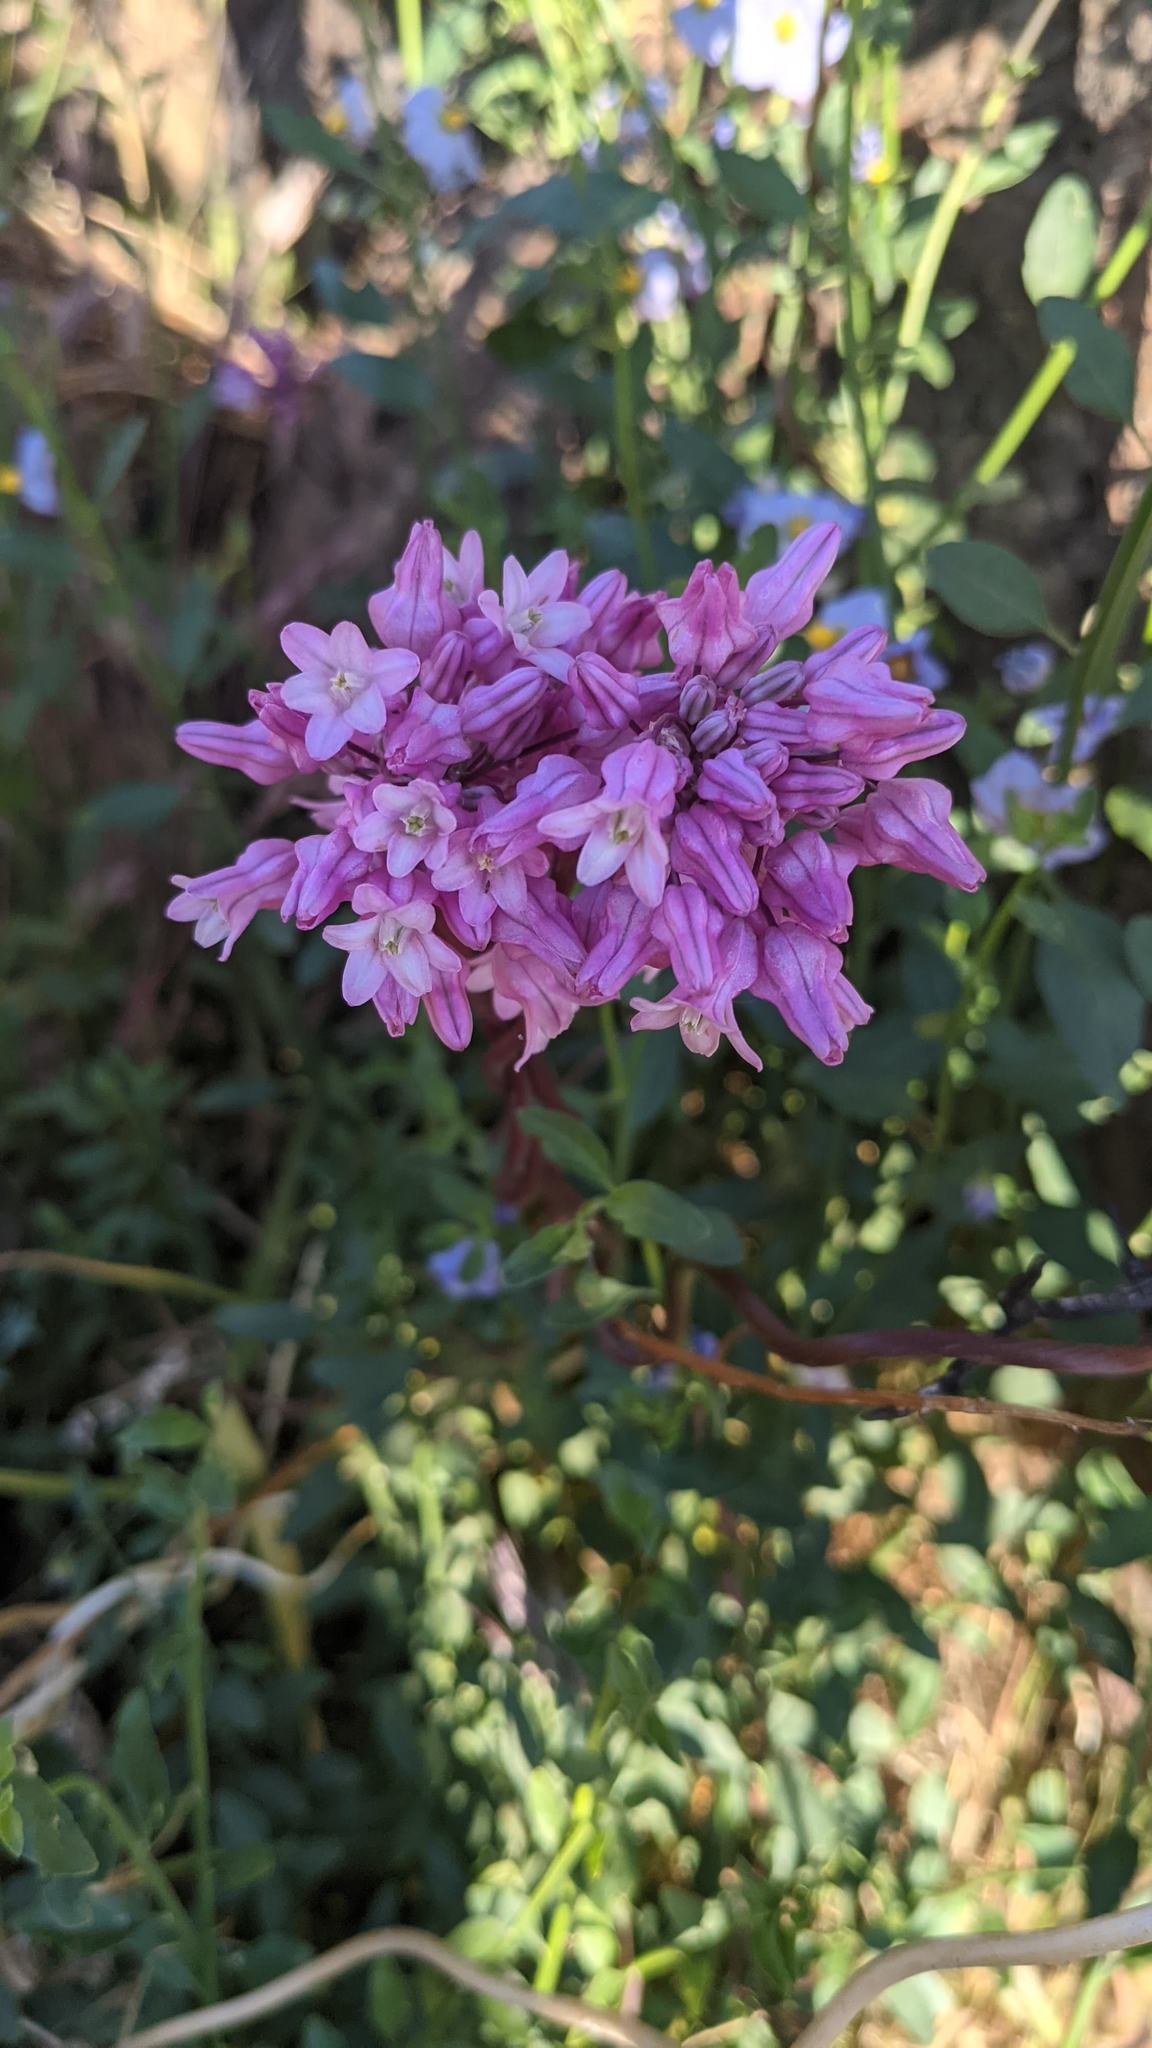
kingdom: Plantae
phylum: Tracheophyta
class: Liliopsida
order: Asparagales
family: Asparagaceae
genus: Dichelostemma
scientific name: Dichelostemma volubile
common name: Trining brodiaea
